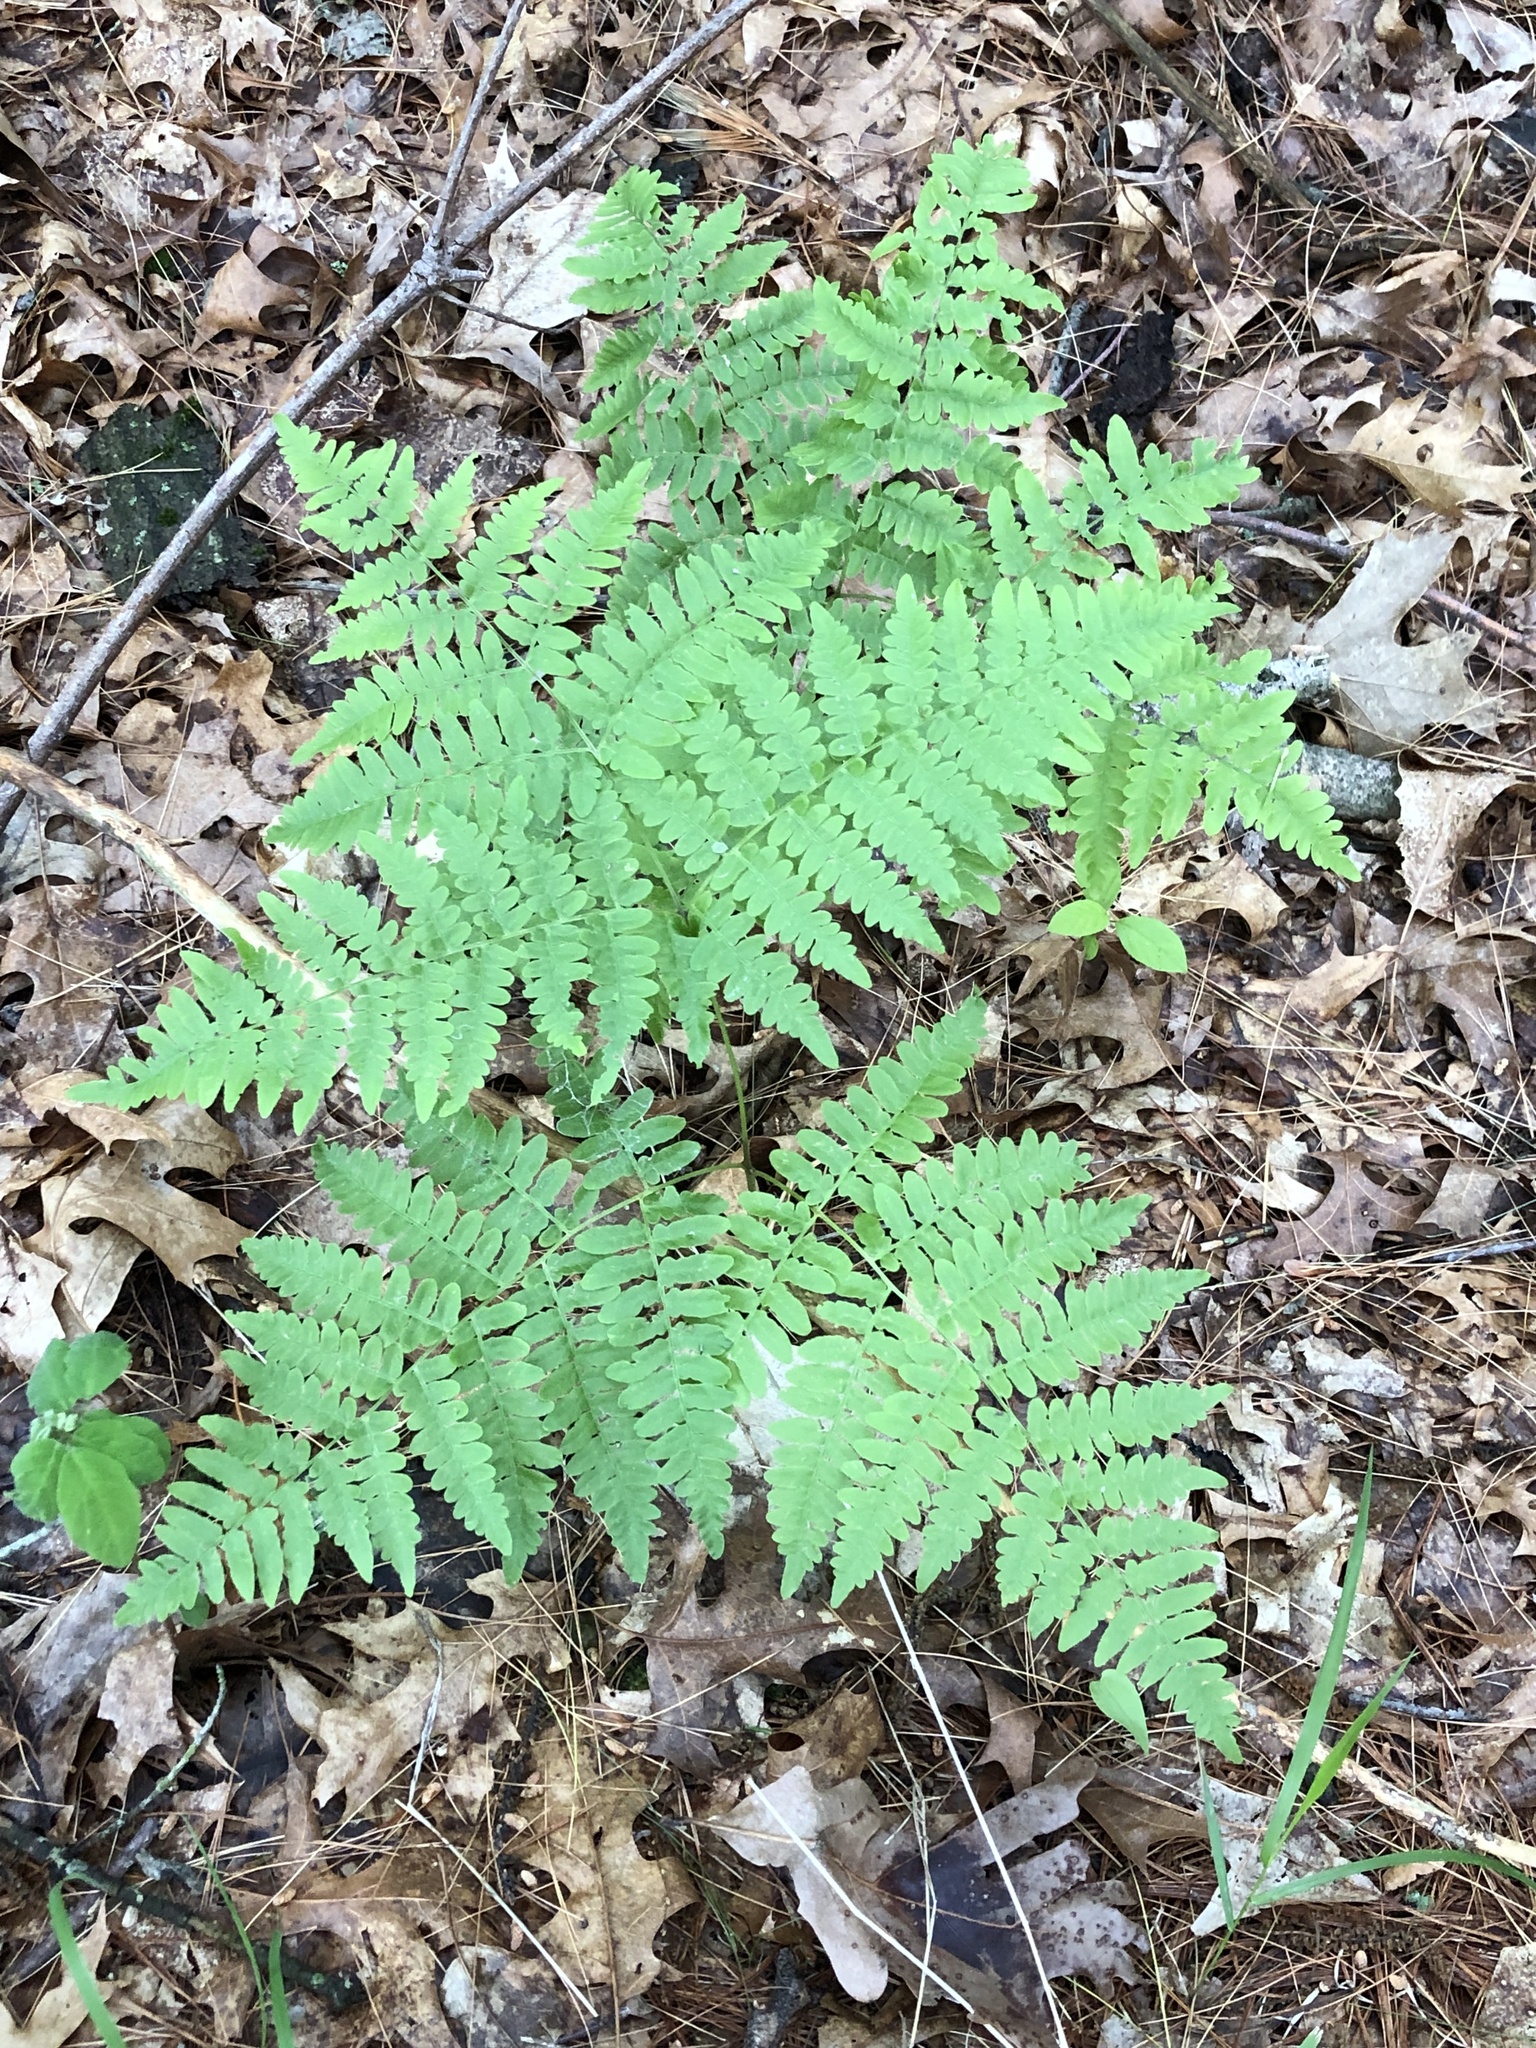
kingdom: Plantae
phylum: Tracheophyta
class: Polypodiopsida
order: Polypodiales
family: Dennstaedtiaceae
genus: Pteridium
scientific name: Pteridium aquilinum
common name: Bracken
